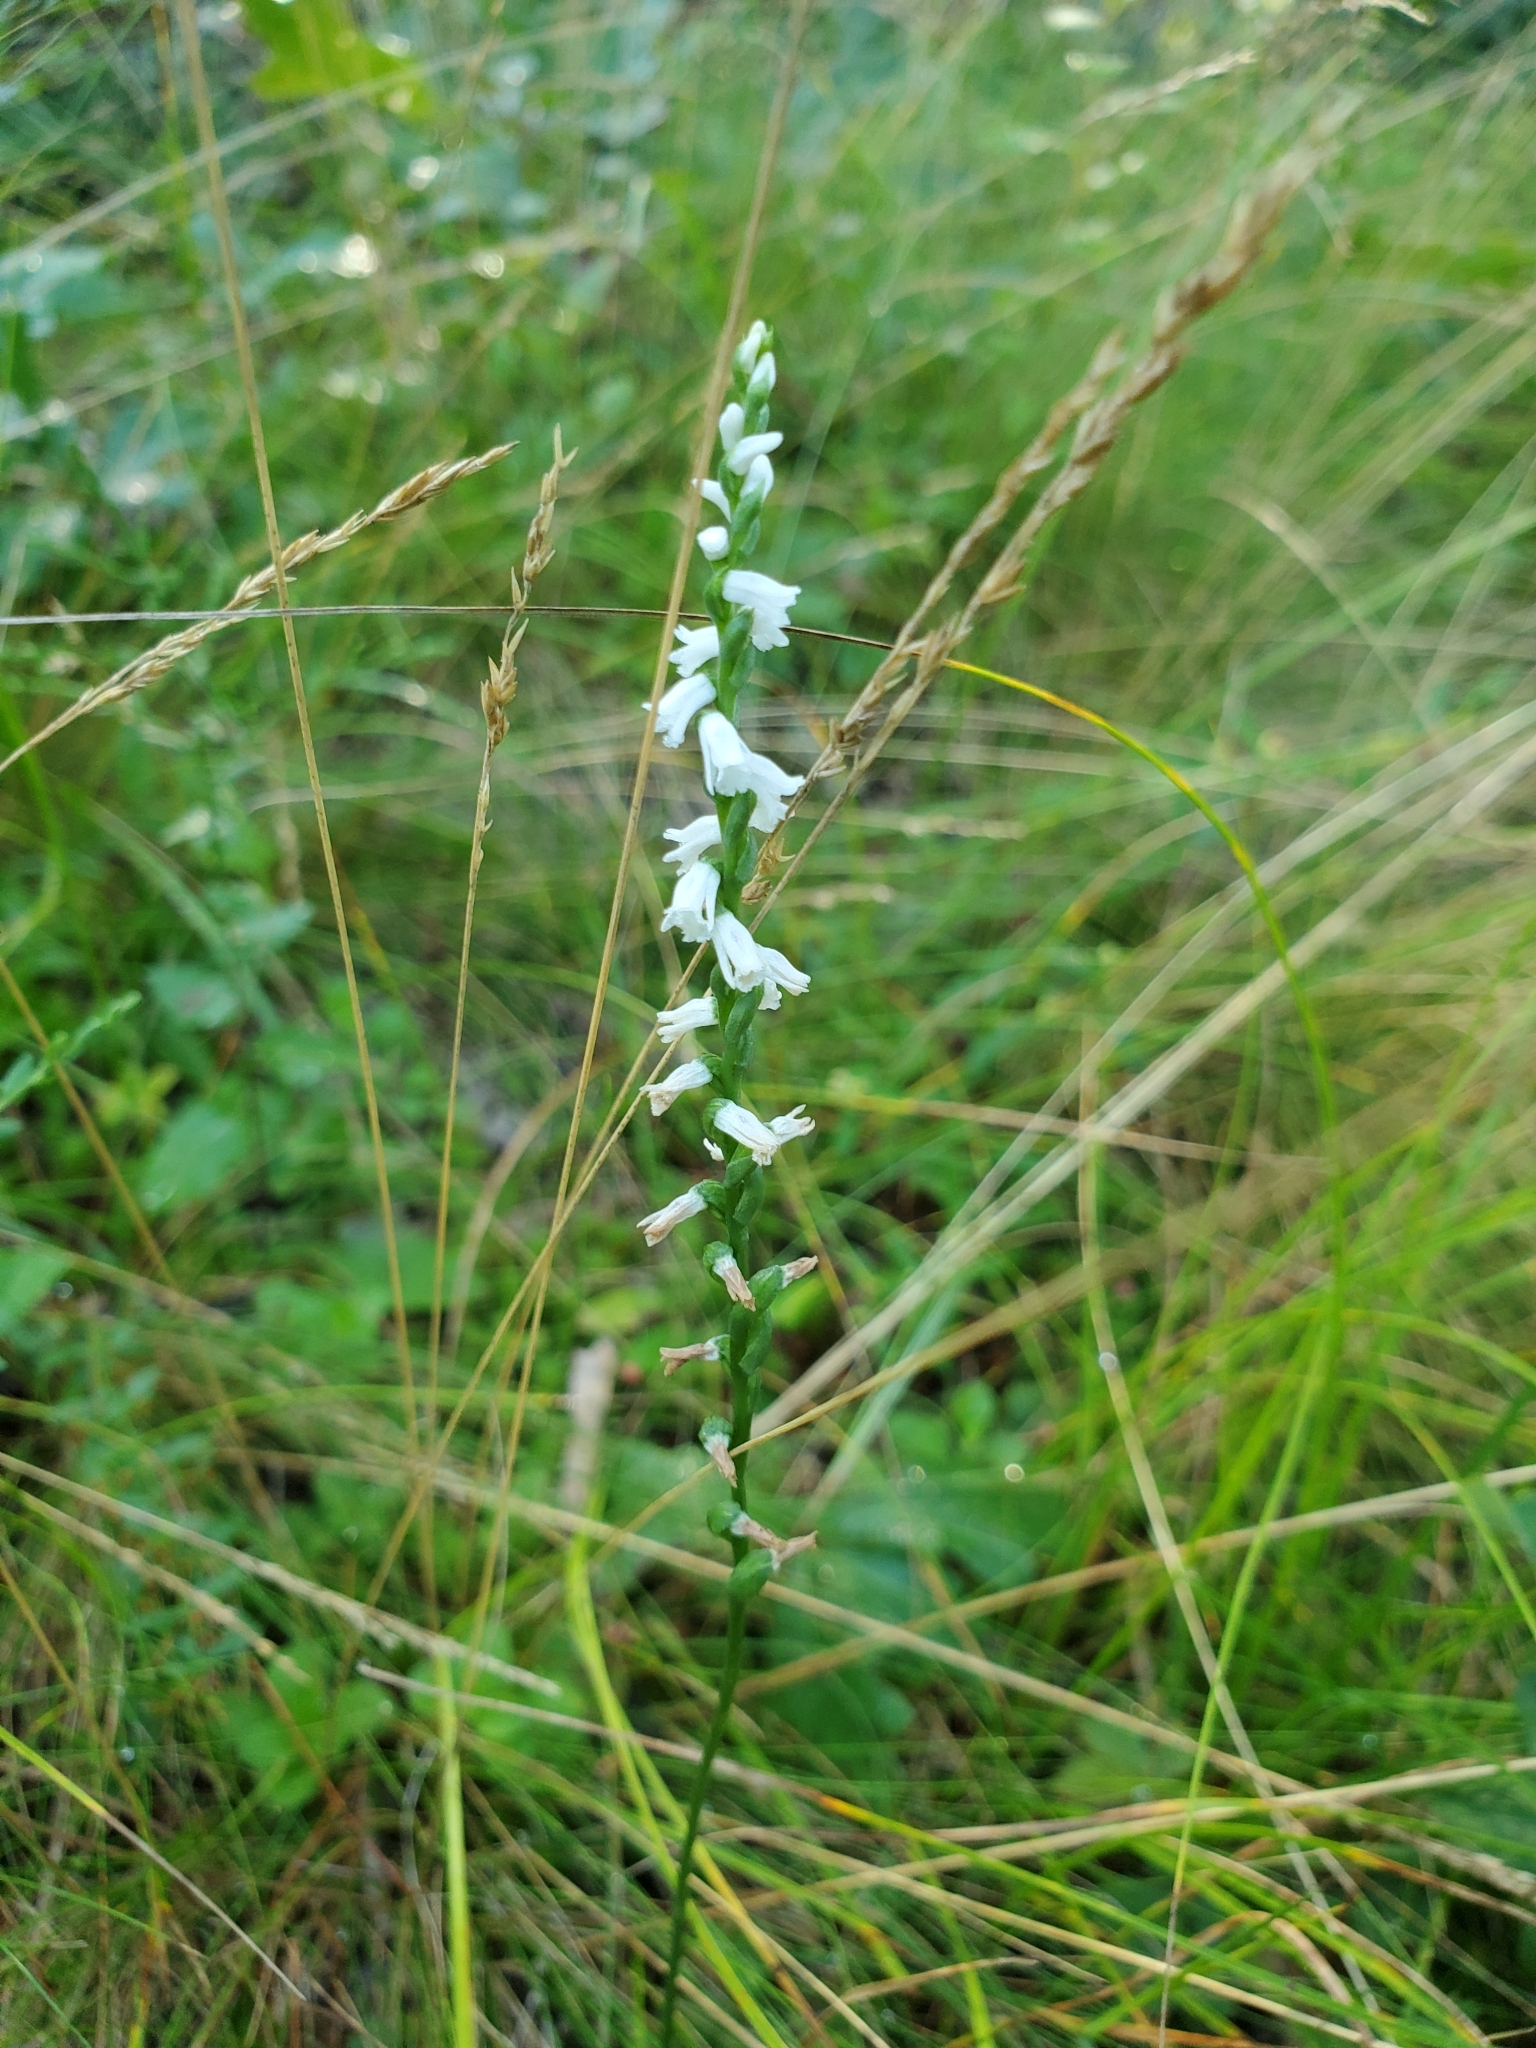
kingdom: Plantae
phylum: Tracheophyta
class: Liliopsida
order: Asparagales
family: Orchidaceae
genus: Spiranthes
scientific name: Spiranthes tuberosa
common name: Little ladies'-tresses
